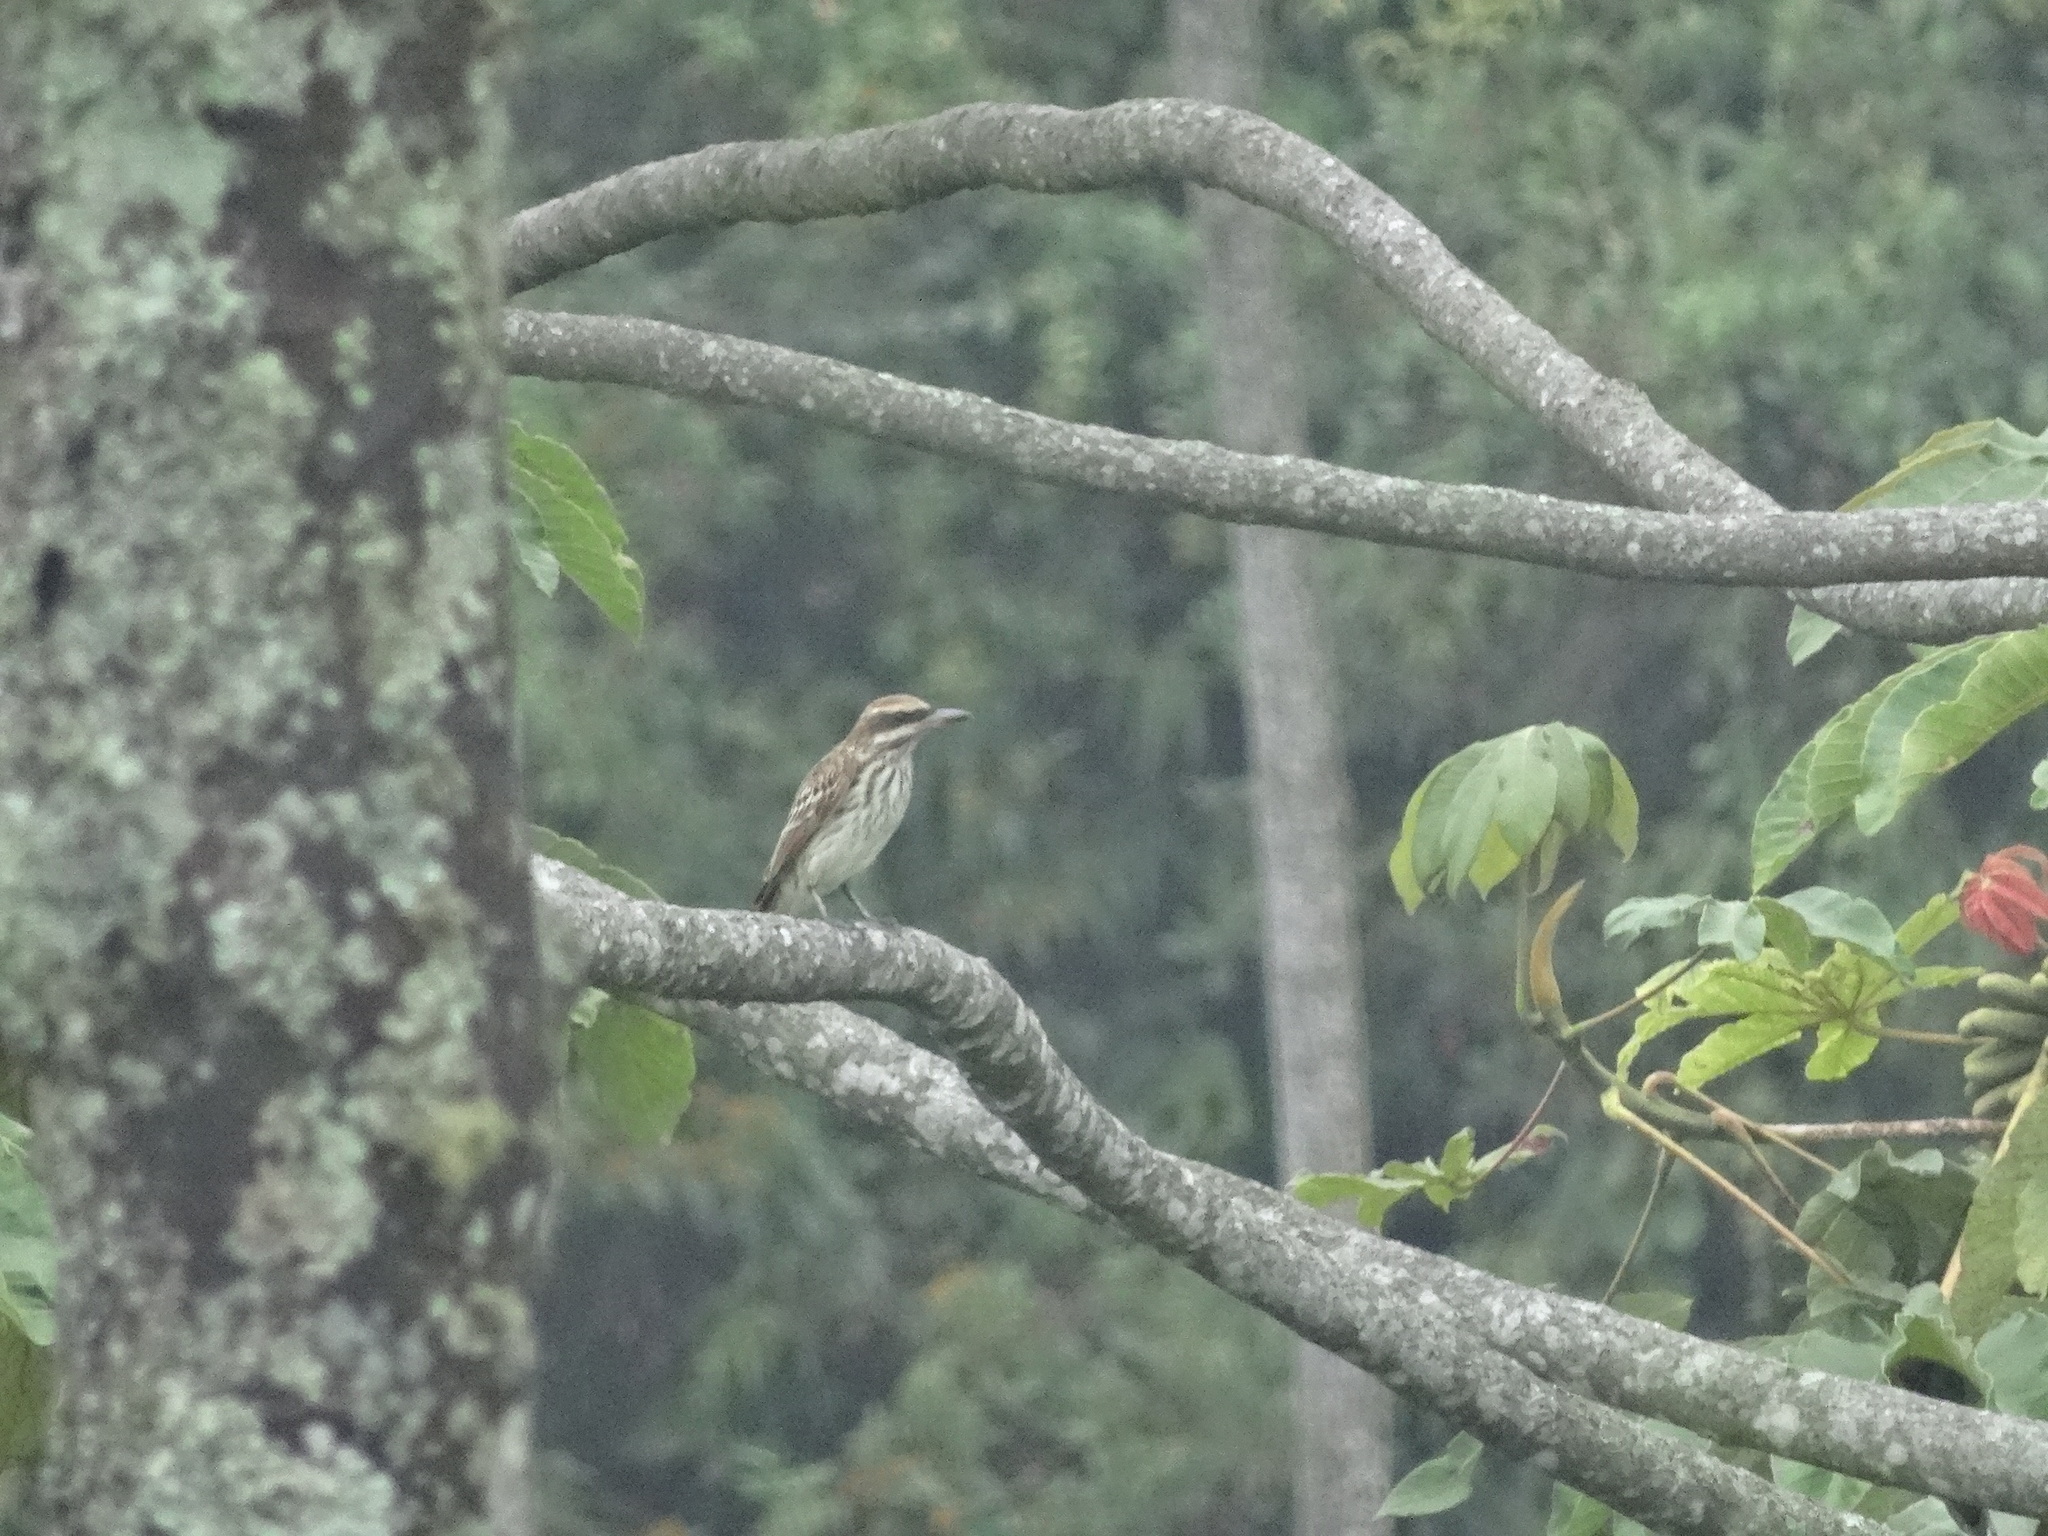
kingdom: Animalia
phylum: Chordata
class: Aves
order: Passeriformes
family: Tyrannidae
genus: Myiodynastes
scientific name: Myiodynastes maculatus
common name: Streaked flycatcher
